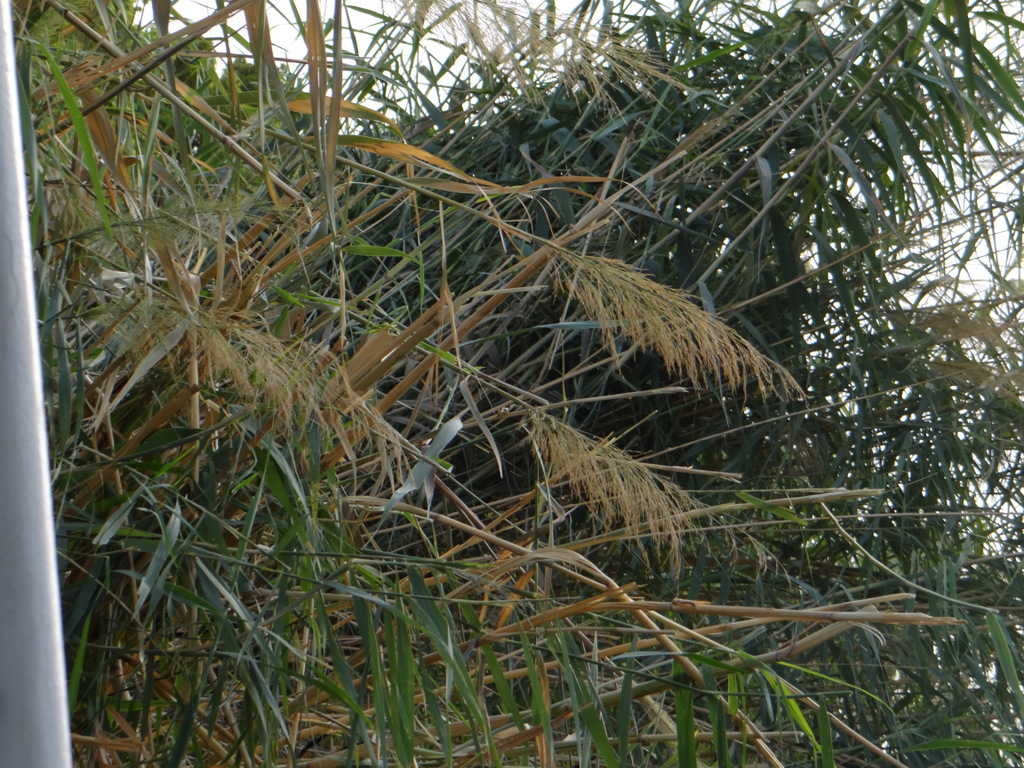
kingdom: Plantae
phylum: Tracheophyta
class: Liliopsida
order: Poales
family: Poaceae
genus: Phragmites
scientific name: Phragmites australis
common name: Common reed
